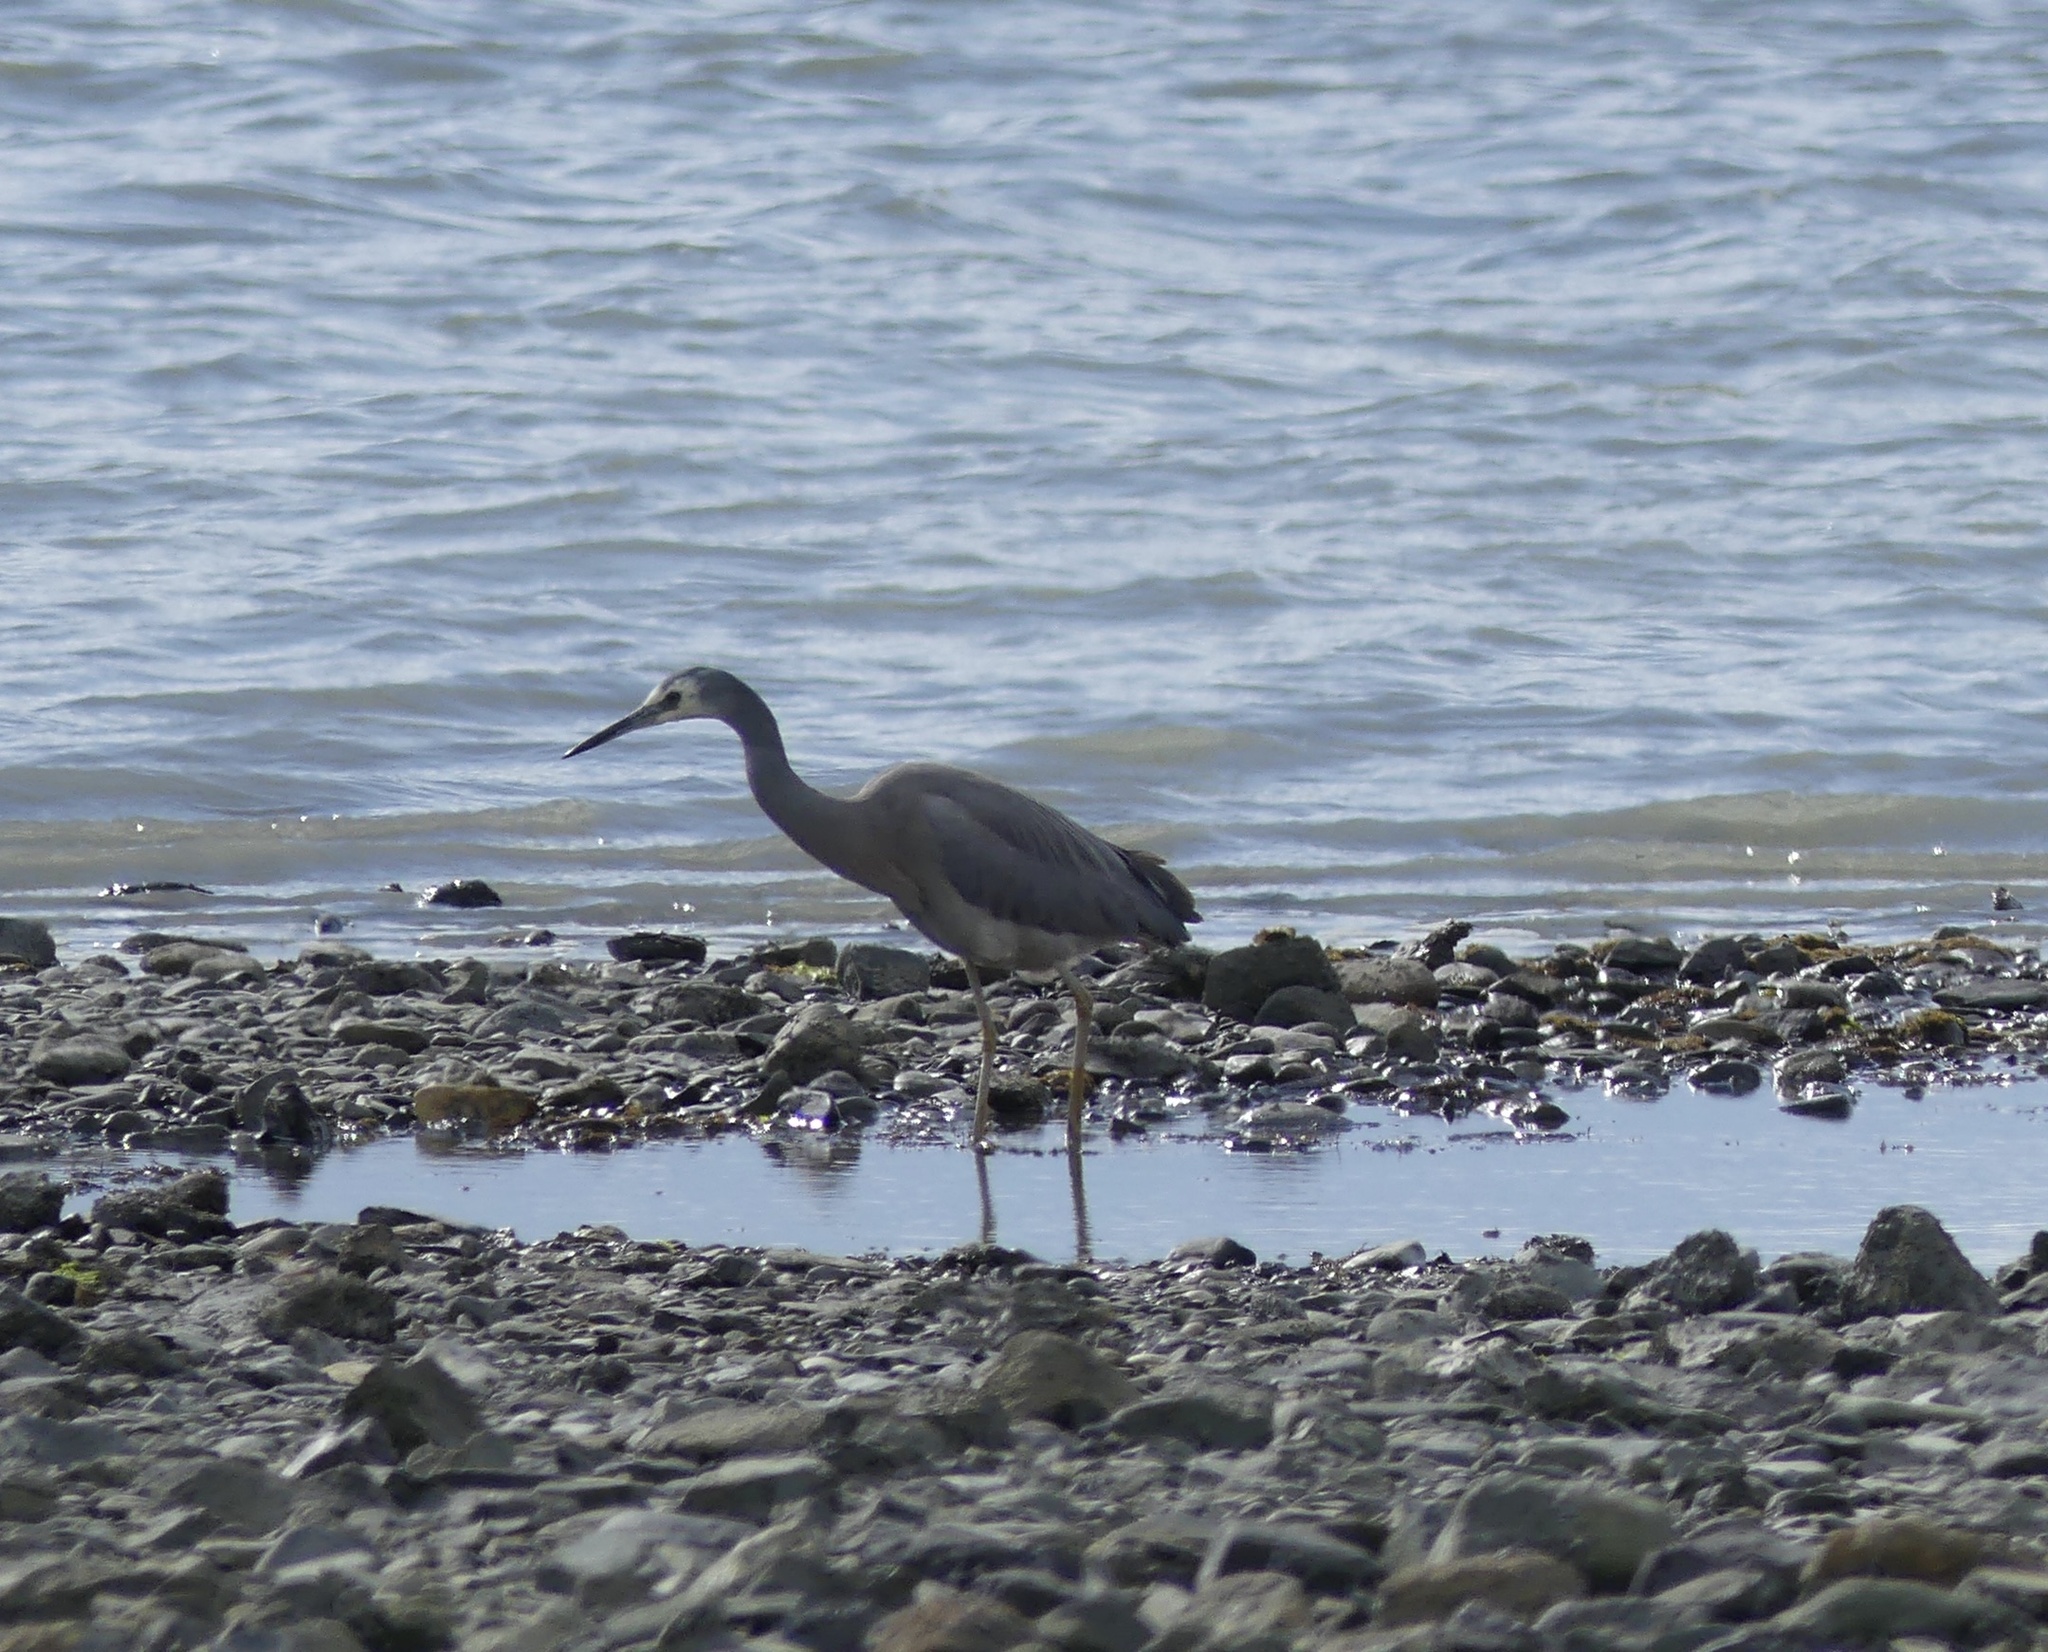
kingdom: Animalia
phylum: Chordata
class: Aves
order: Pelecaniformes
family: Ardeidae
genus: Egretta
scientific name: Egretta novaehollandiae
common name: White-faced heron
